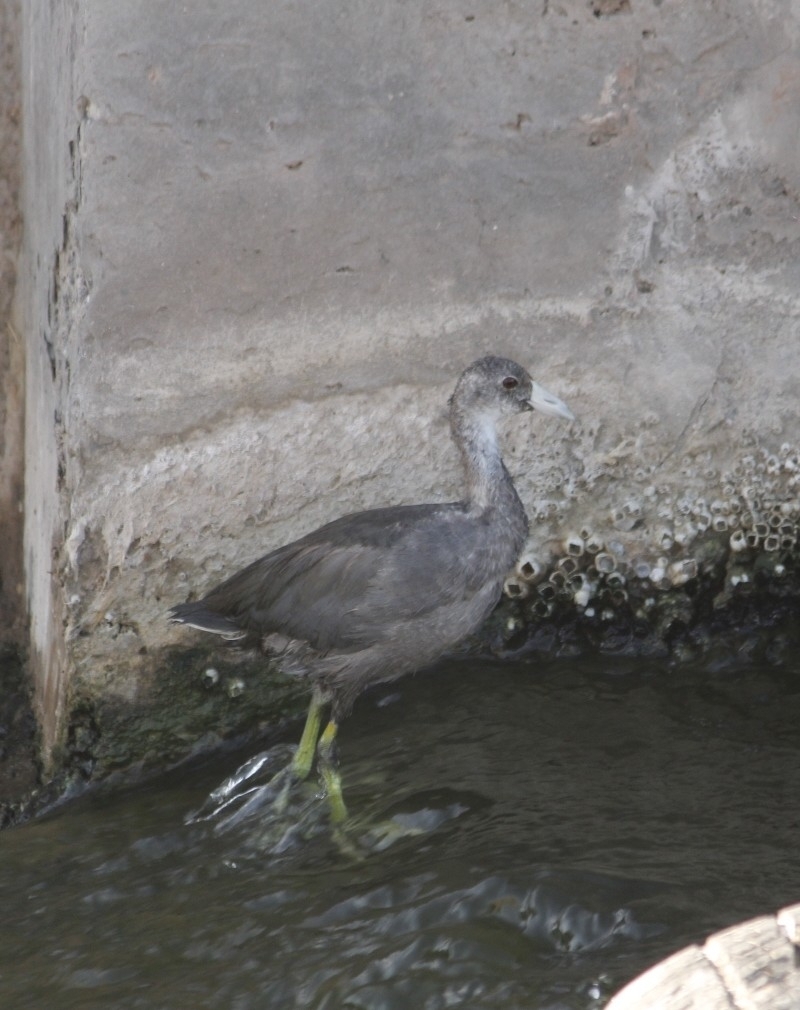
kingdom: Animalia
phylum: Chordata
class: Aves
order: Gruiformes
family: Rallidae
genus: Fulica
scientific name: Fulica americana
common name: American coot
